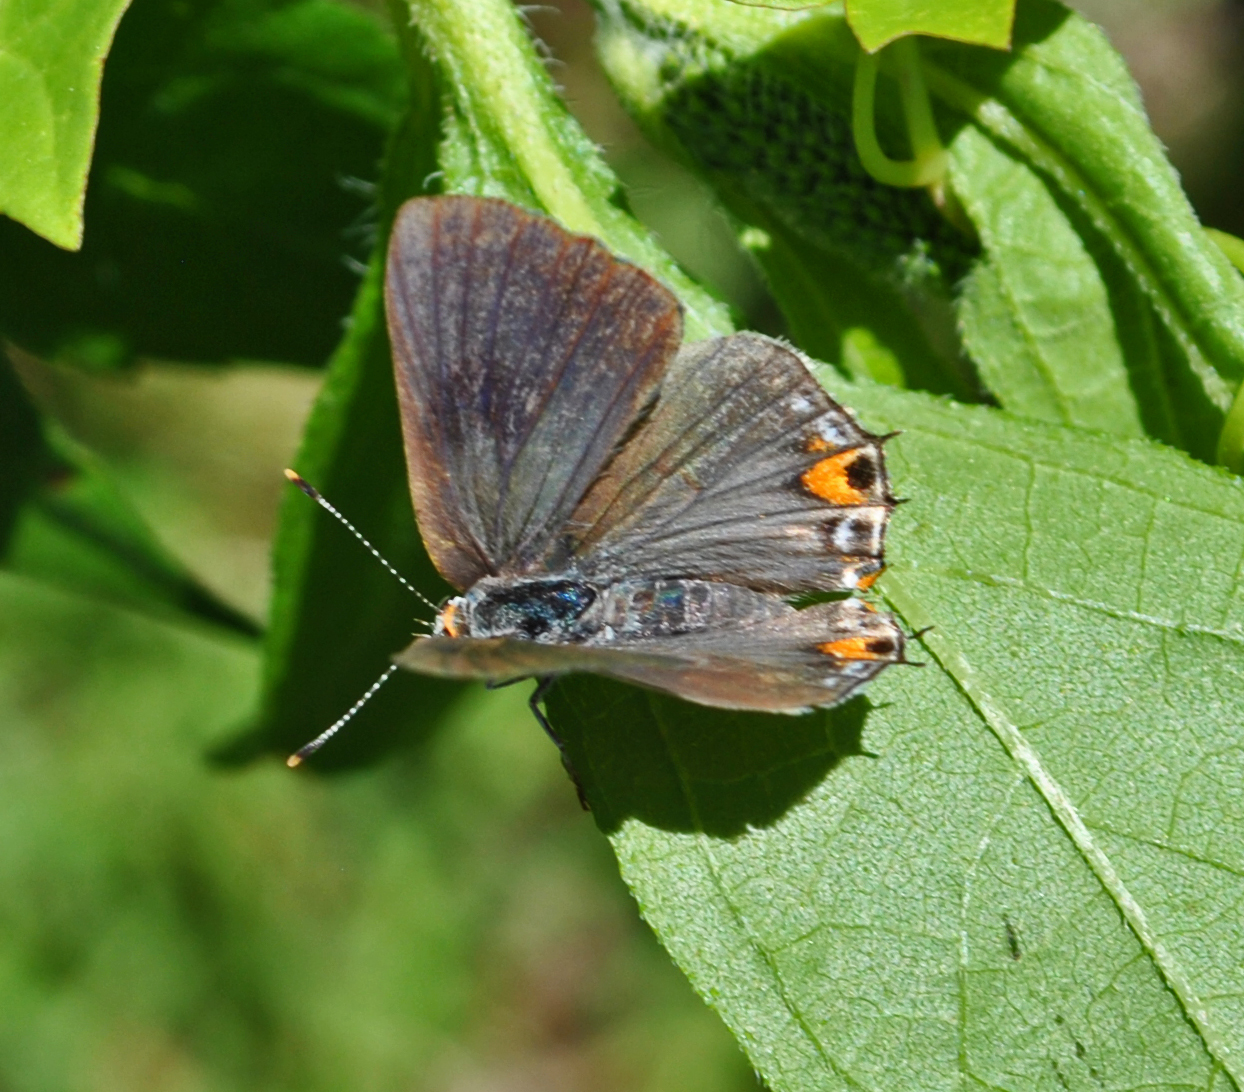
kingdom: Animalia
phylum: Arthropoda
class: Insecta
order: Lepidoptera
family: Lycaenidae
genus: Strymon
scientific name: Strymon melinus
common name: Gray hairstreak
